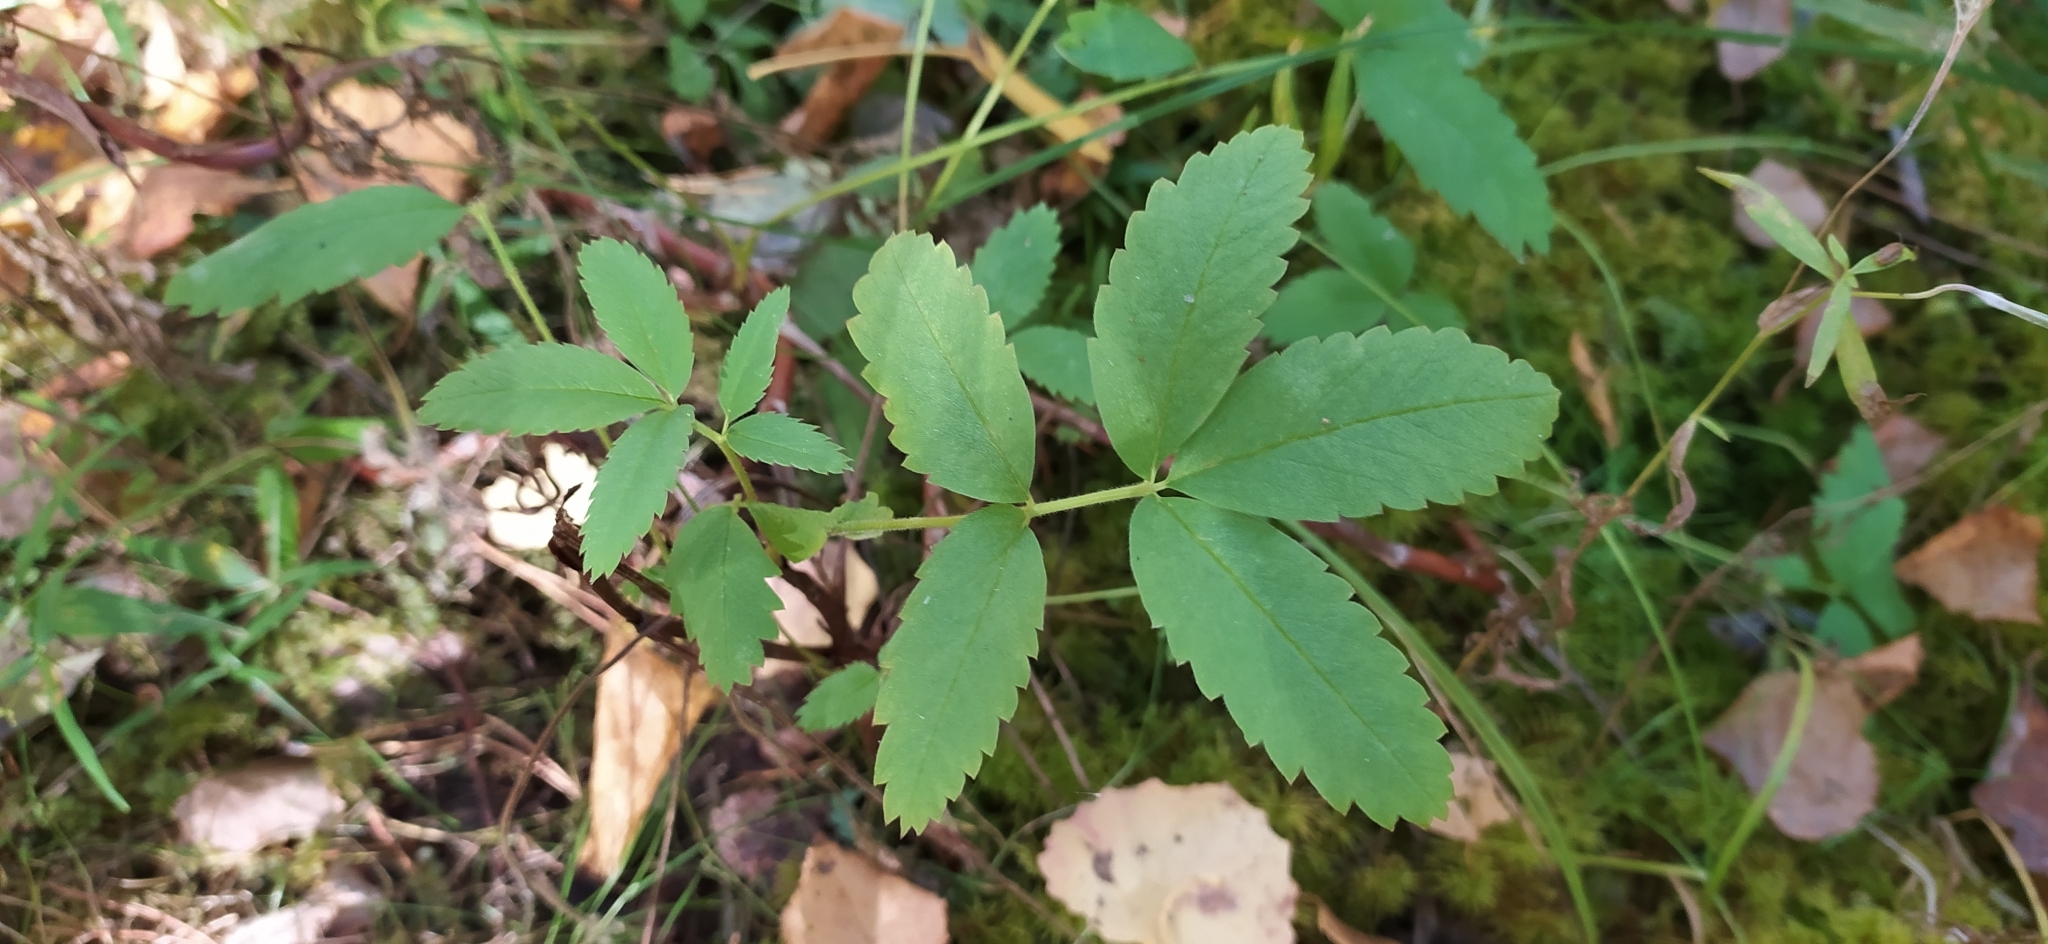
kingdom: Plantae
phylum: Tracheophyta
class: Magnoliopsida
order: Rosales
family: Rosaceae
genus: Comarum
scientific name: Comarum palustre
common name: Marsh cinquefoil
